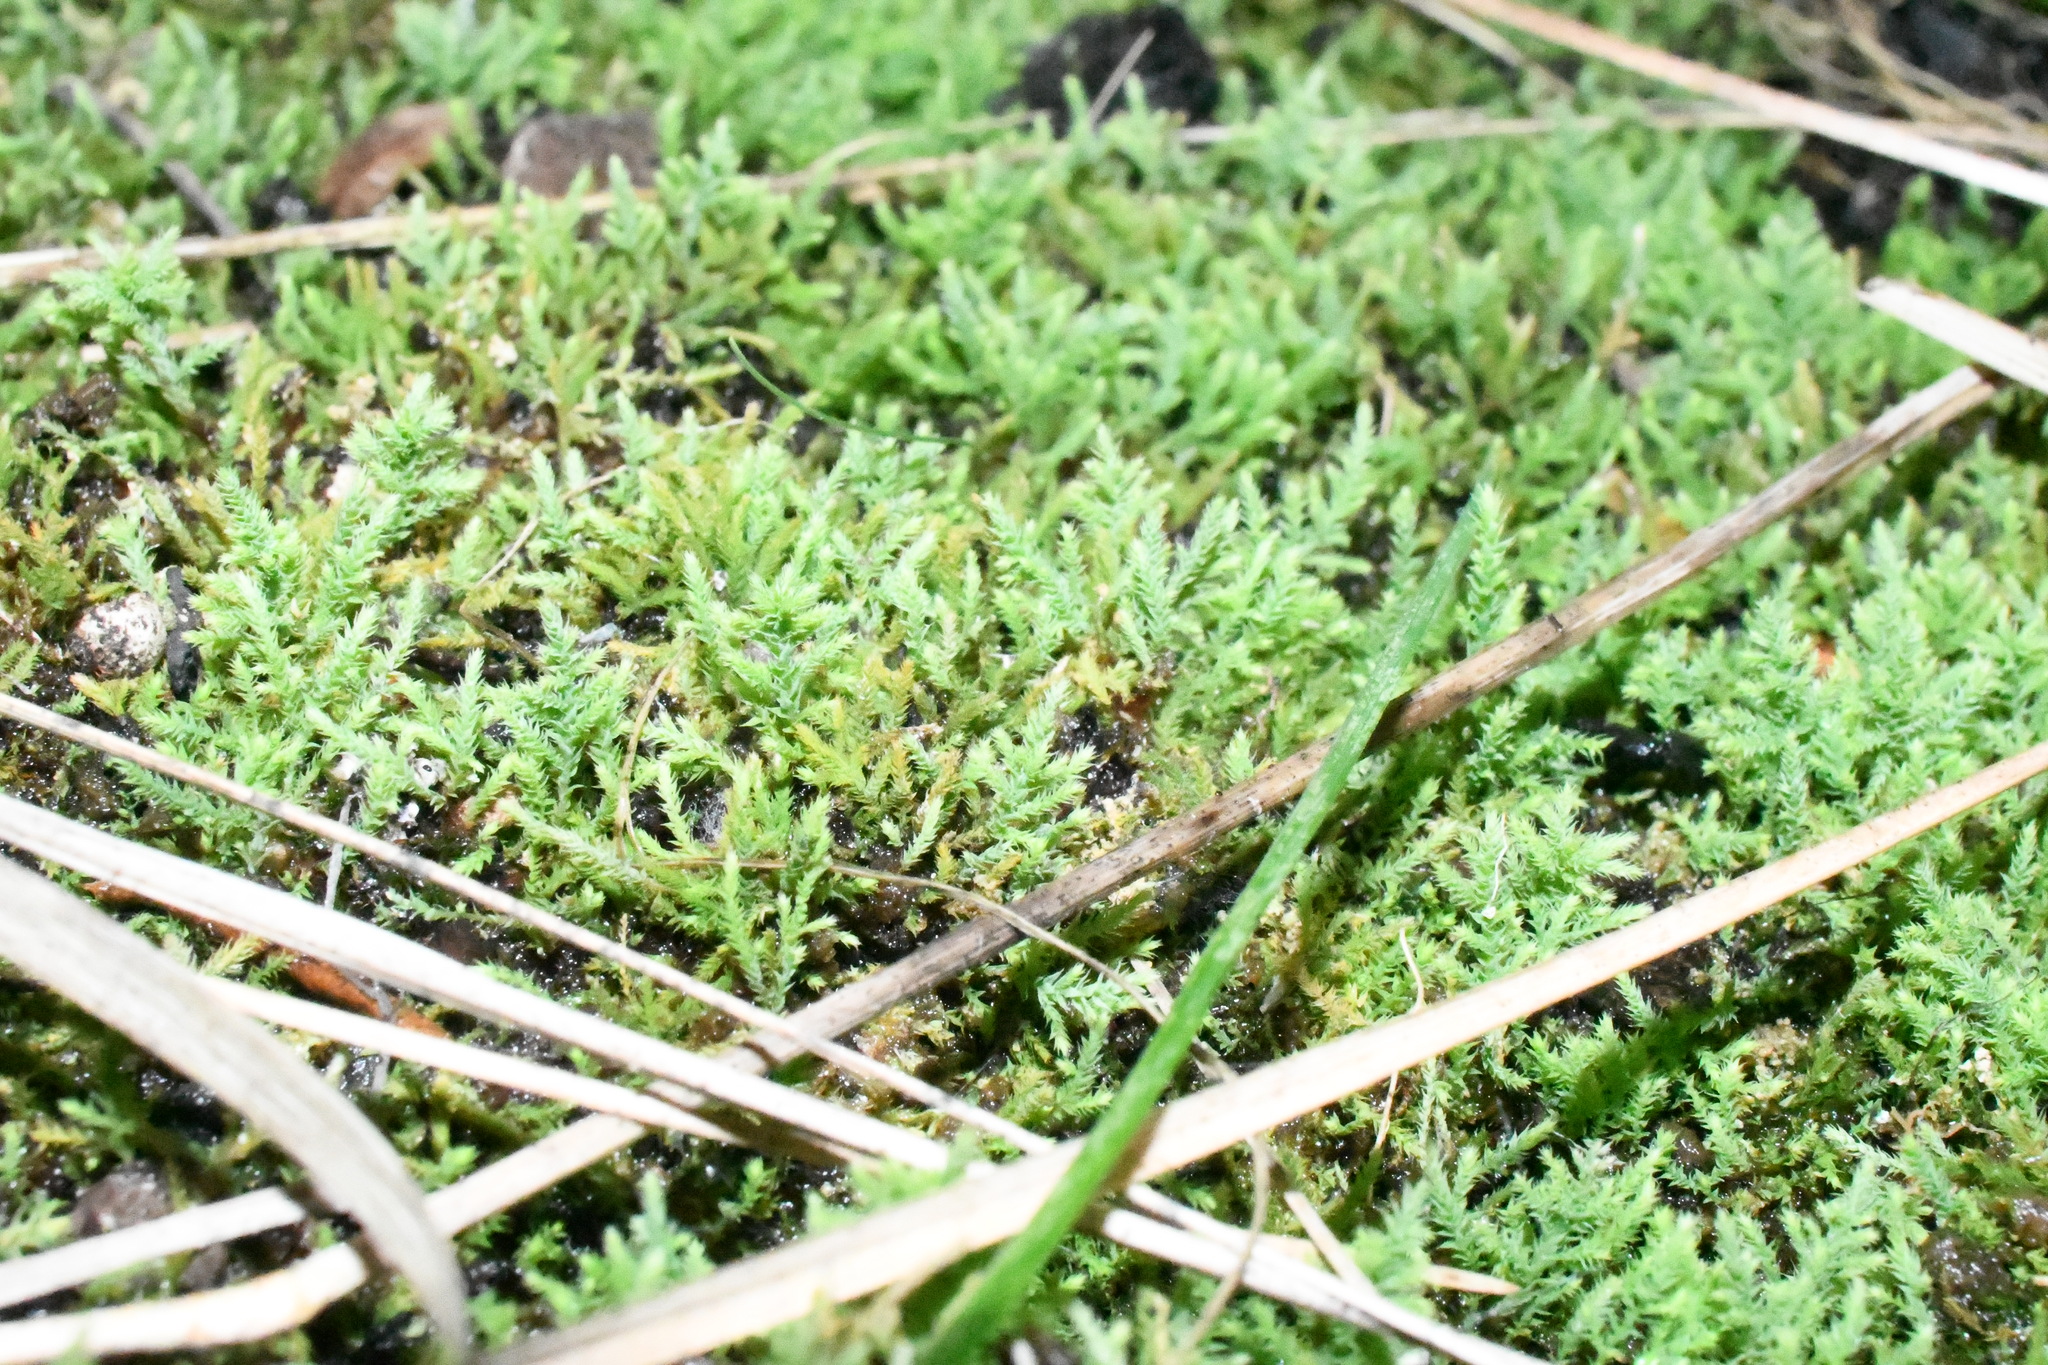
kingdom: Plantae
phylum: Bryophyta
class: Bryopsida
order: Bartramiales
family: Bartramiaceae
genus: Philonotis
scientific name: Philonotis scabrifolia
